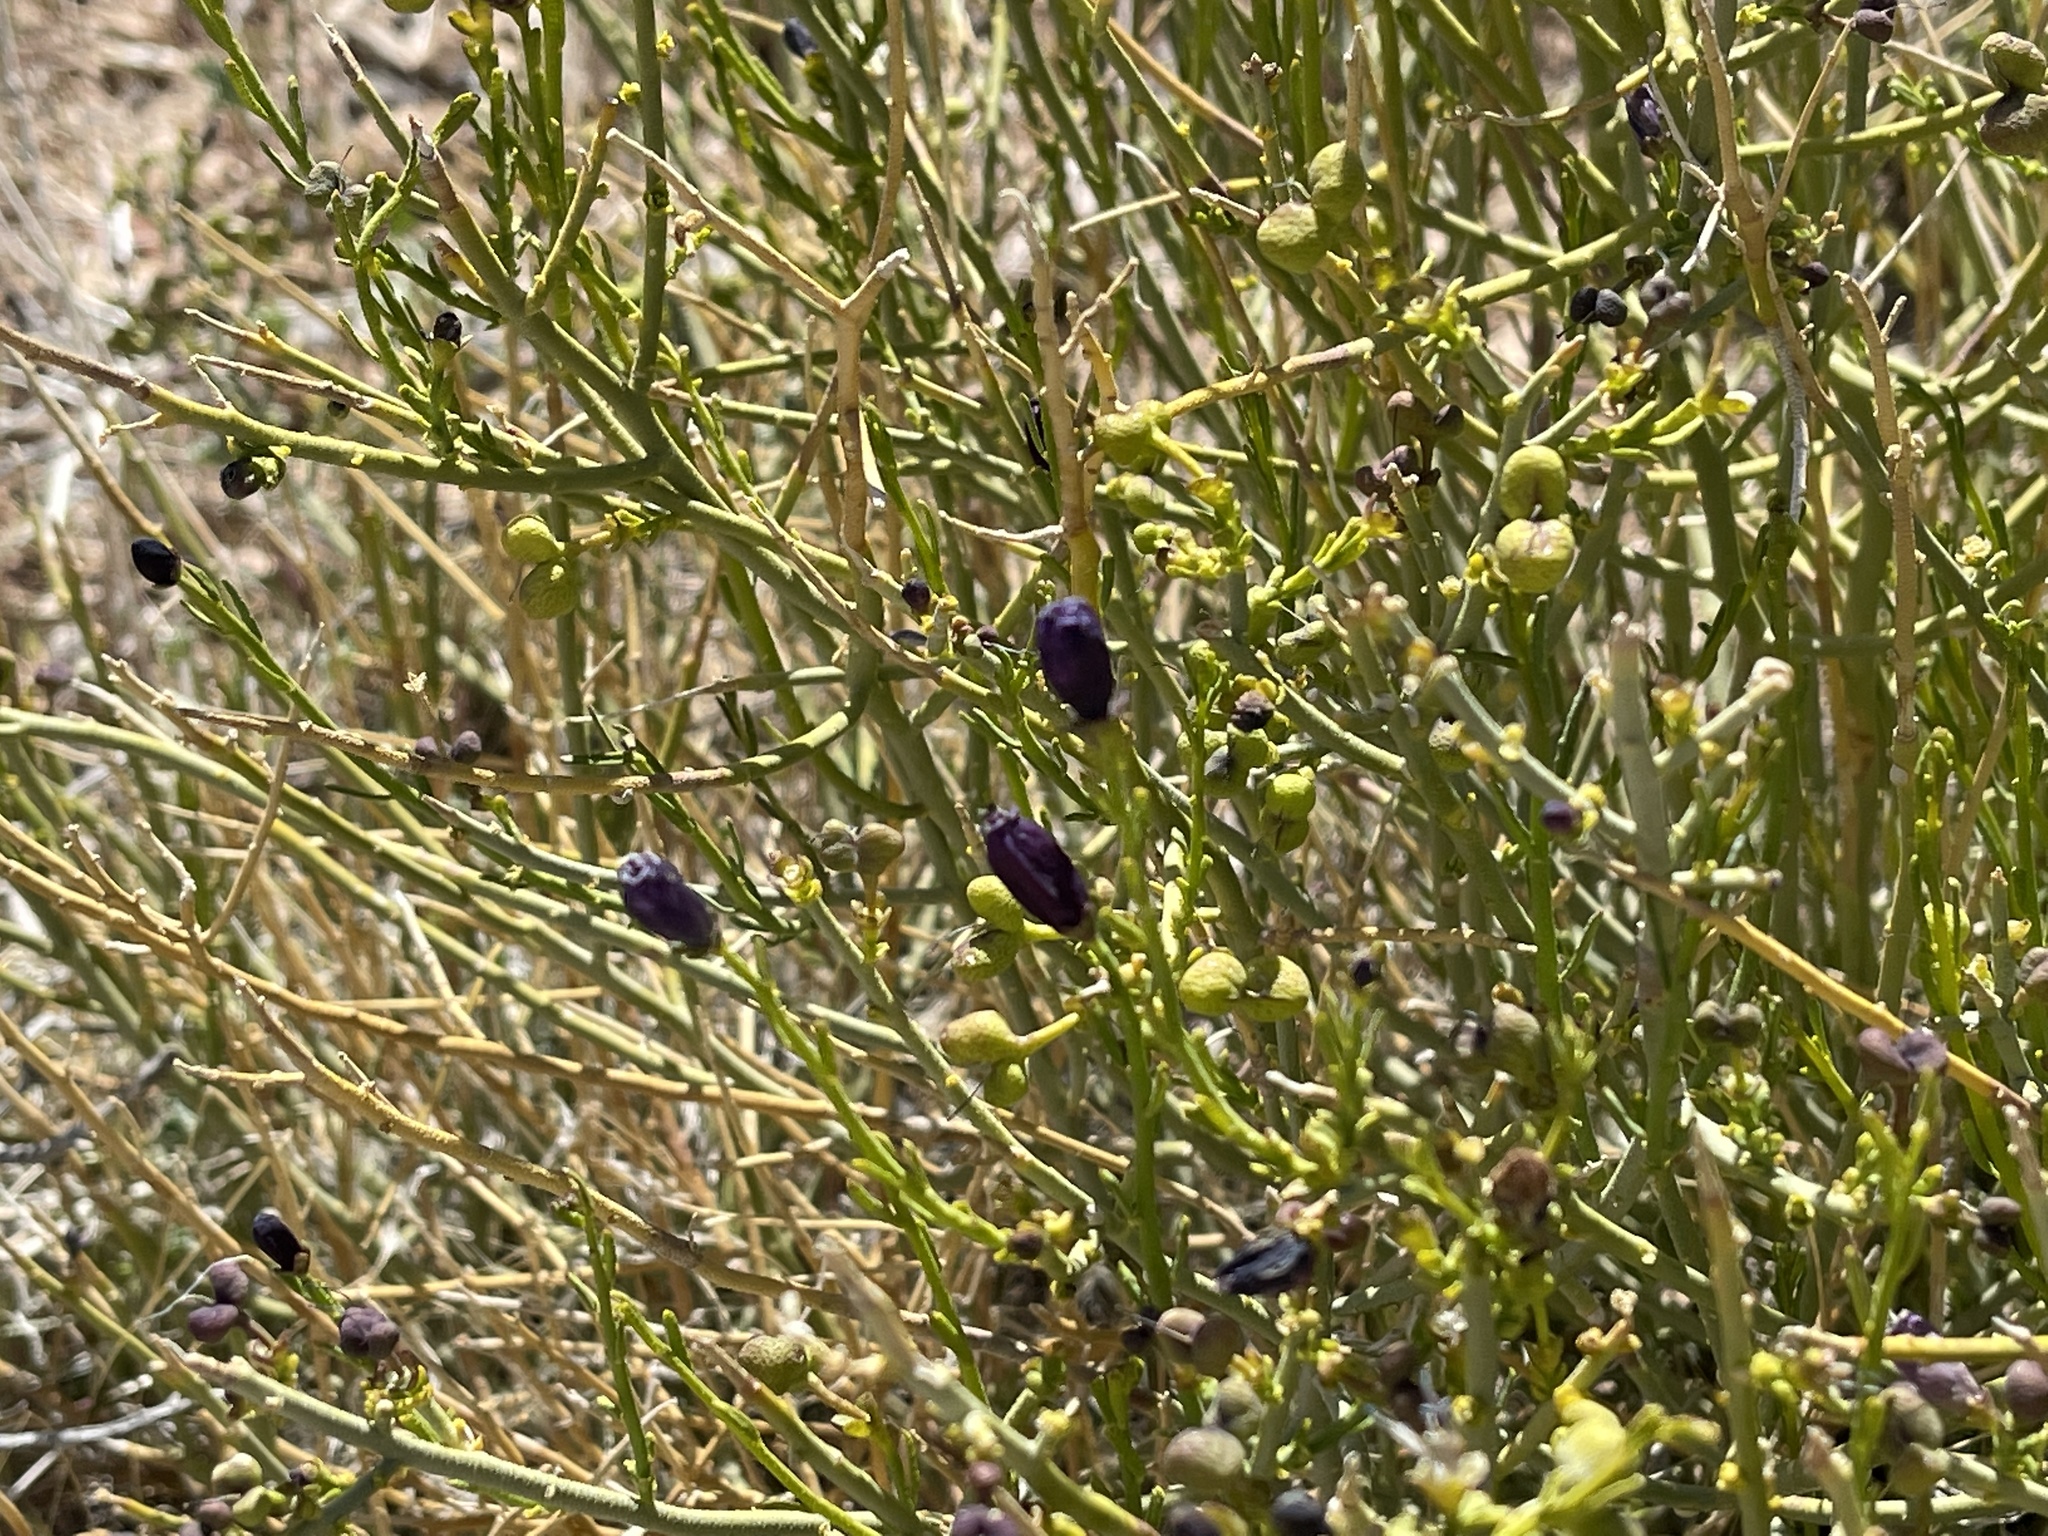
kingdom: Plantae
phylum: Tracheophyta
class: Magnoliopsida
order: Sapindales
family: Rutaceae
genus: Thamnosma
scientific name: Thamnosma montana
